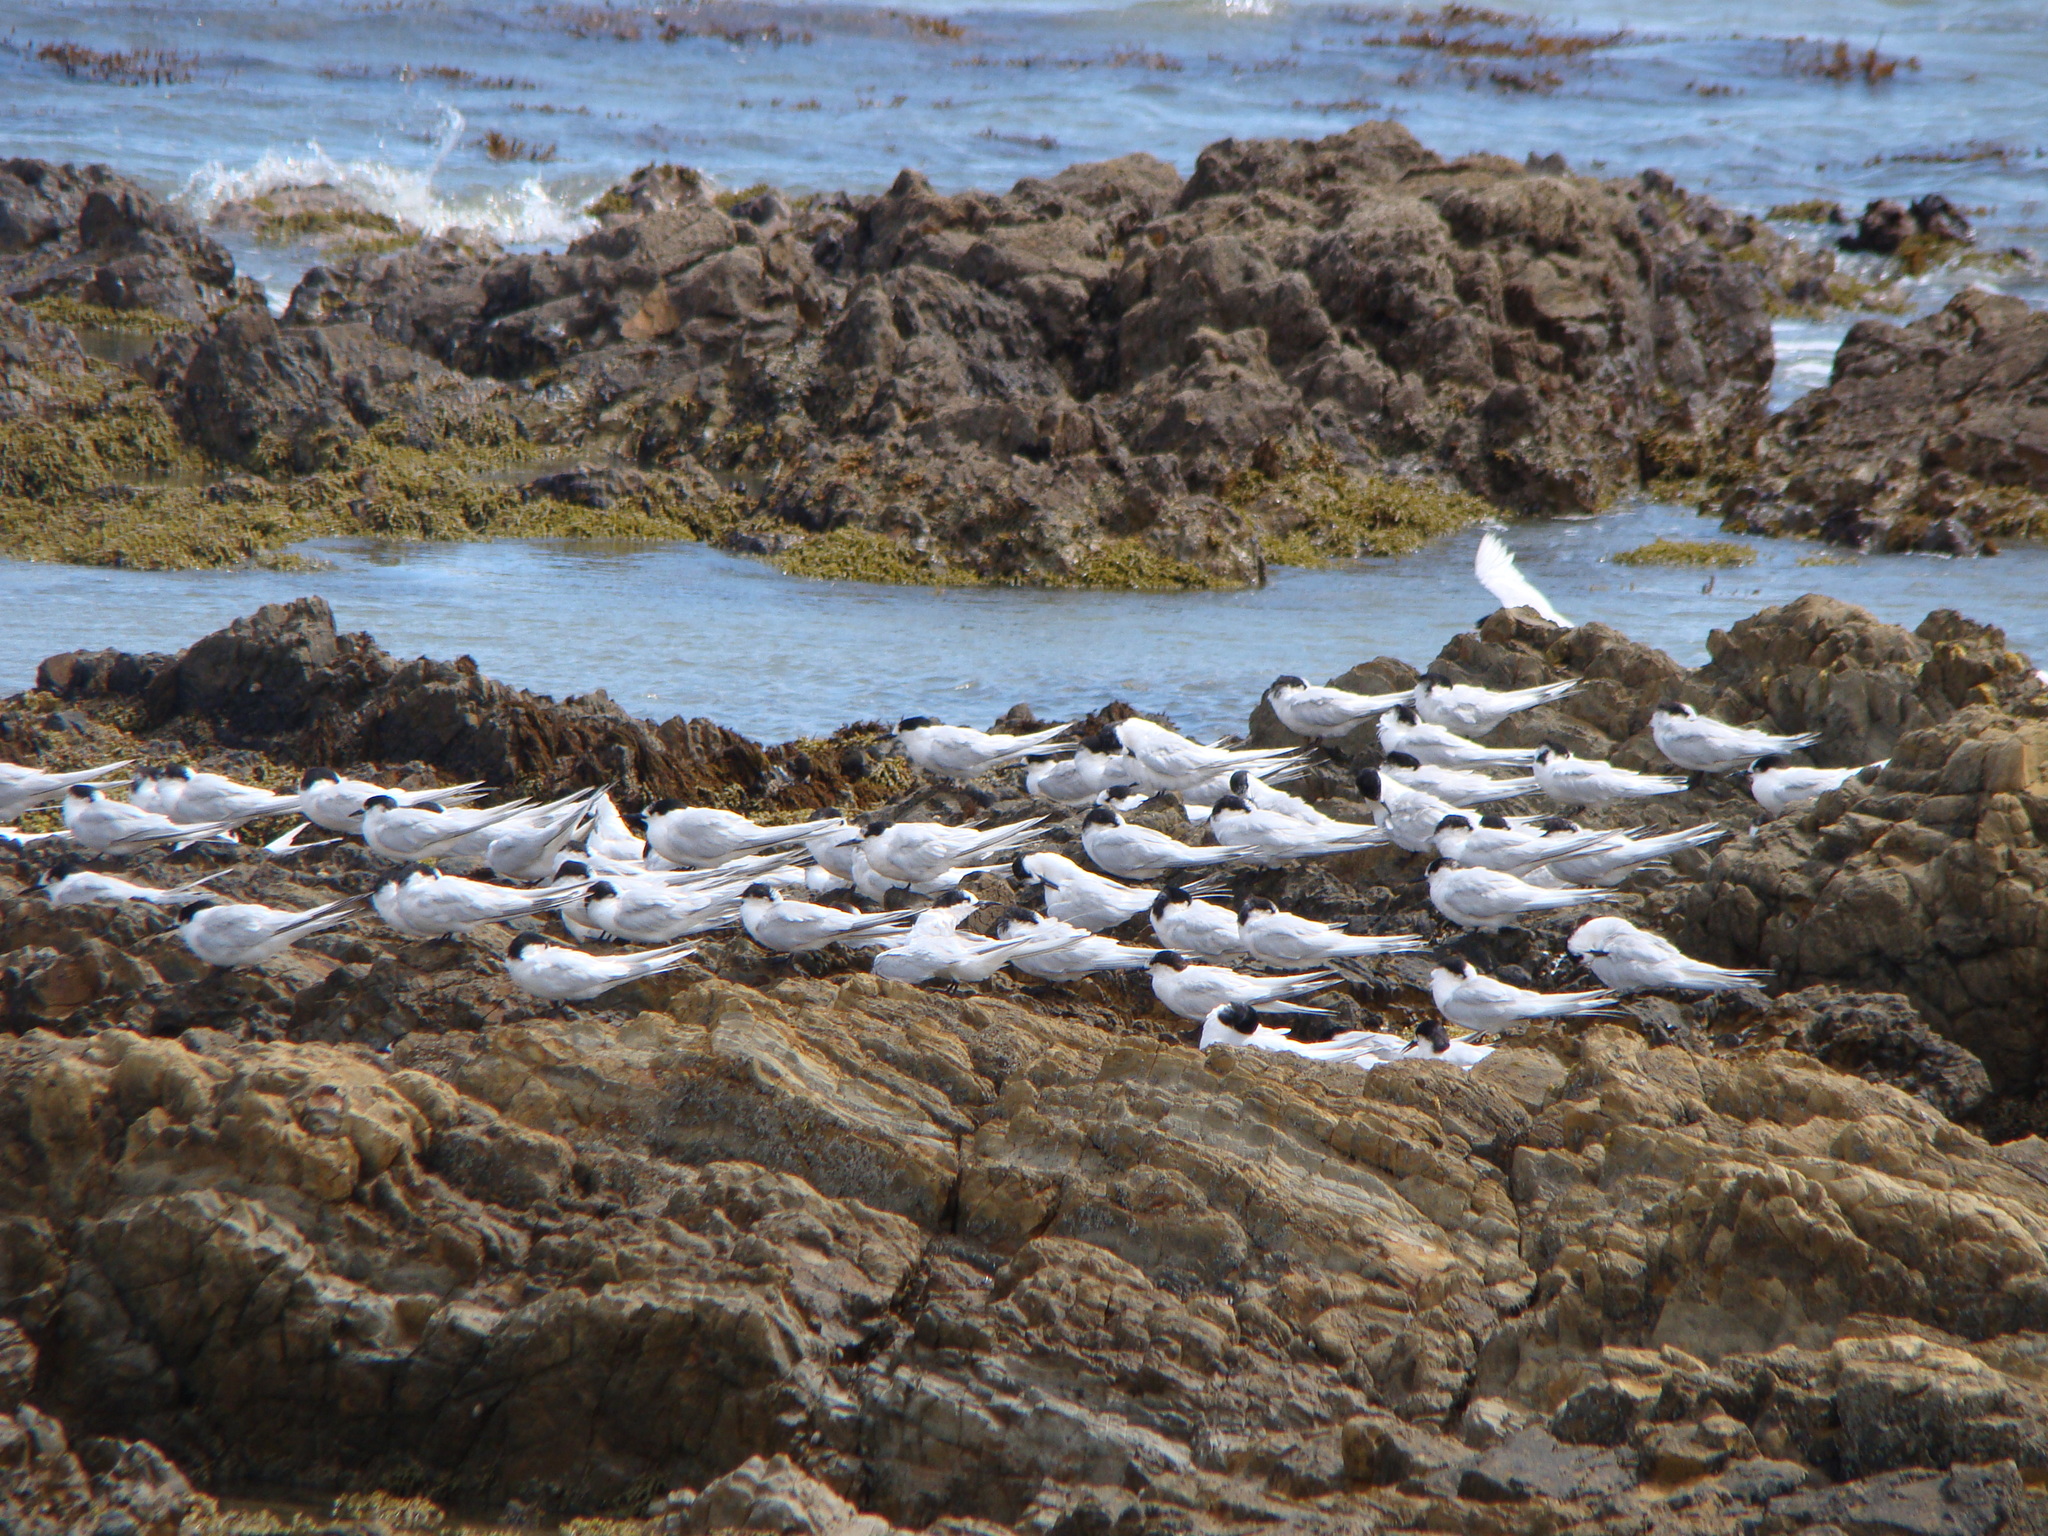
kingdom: Animalia
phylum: Chordata
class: Aves
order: Charadriiformes
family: Laridae
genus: Sterna
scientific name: Sterna striata
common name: White-fronted tern
